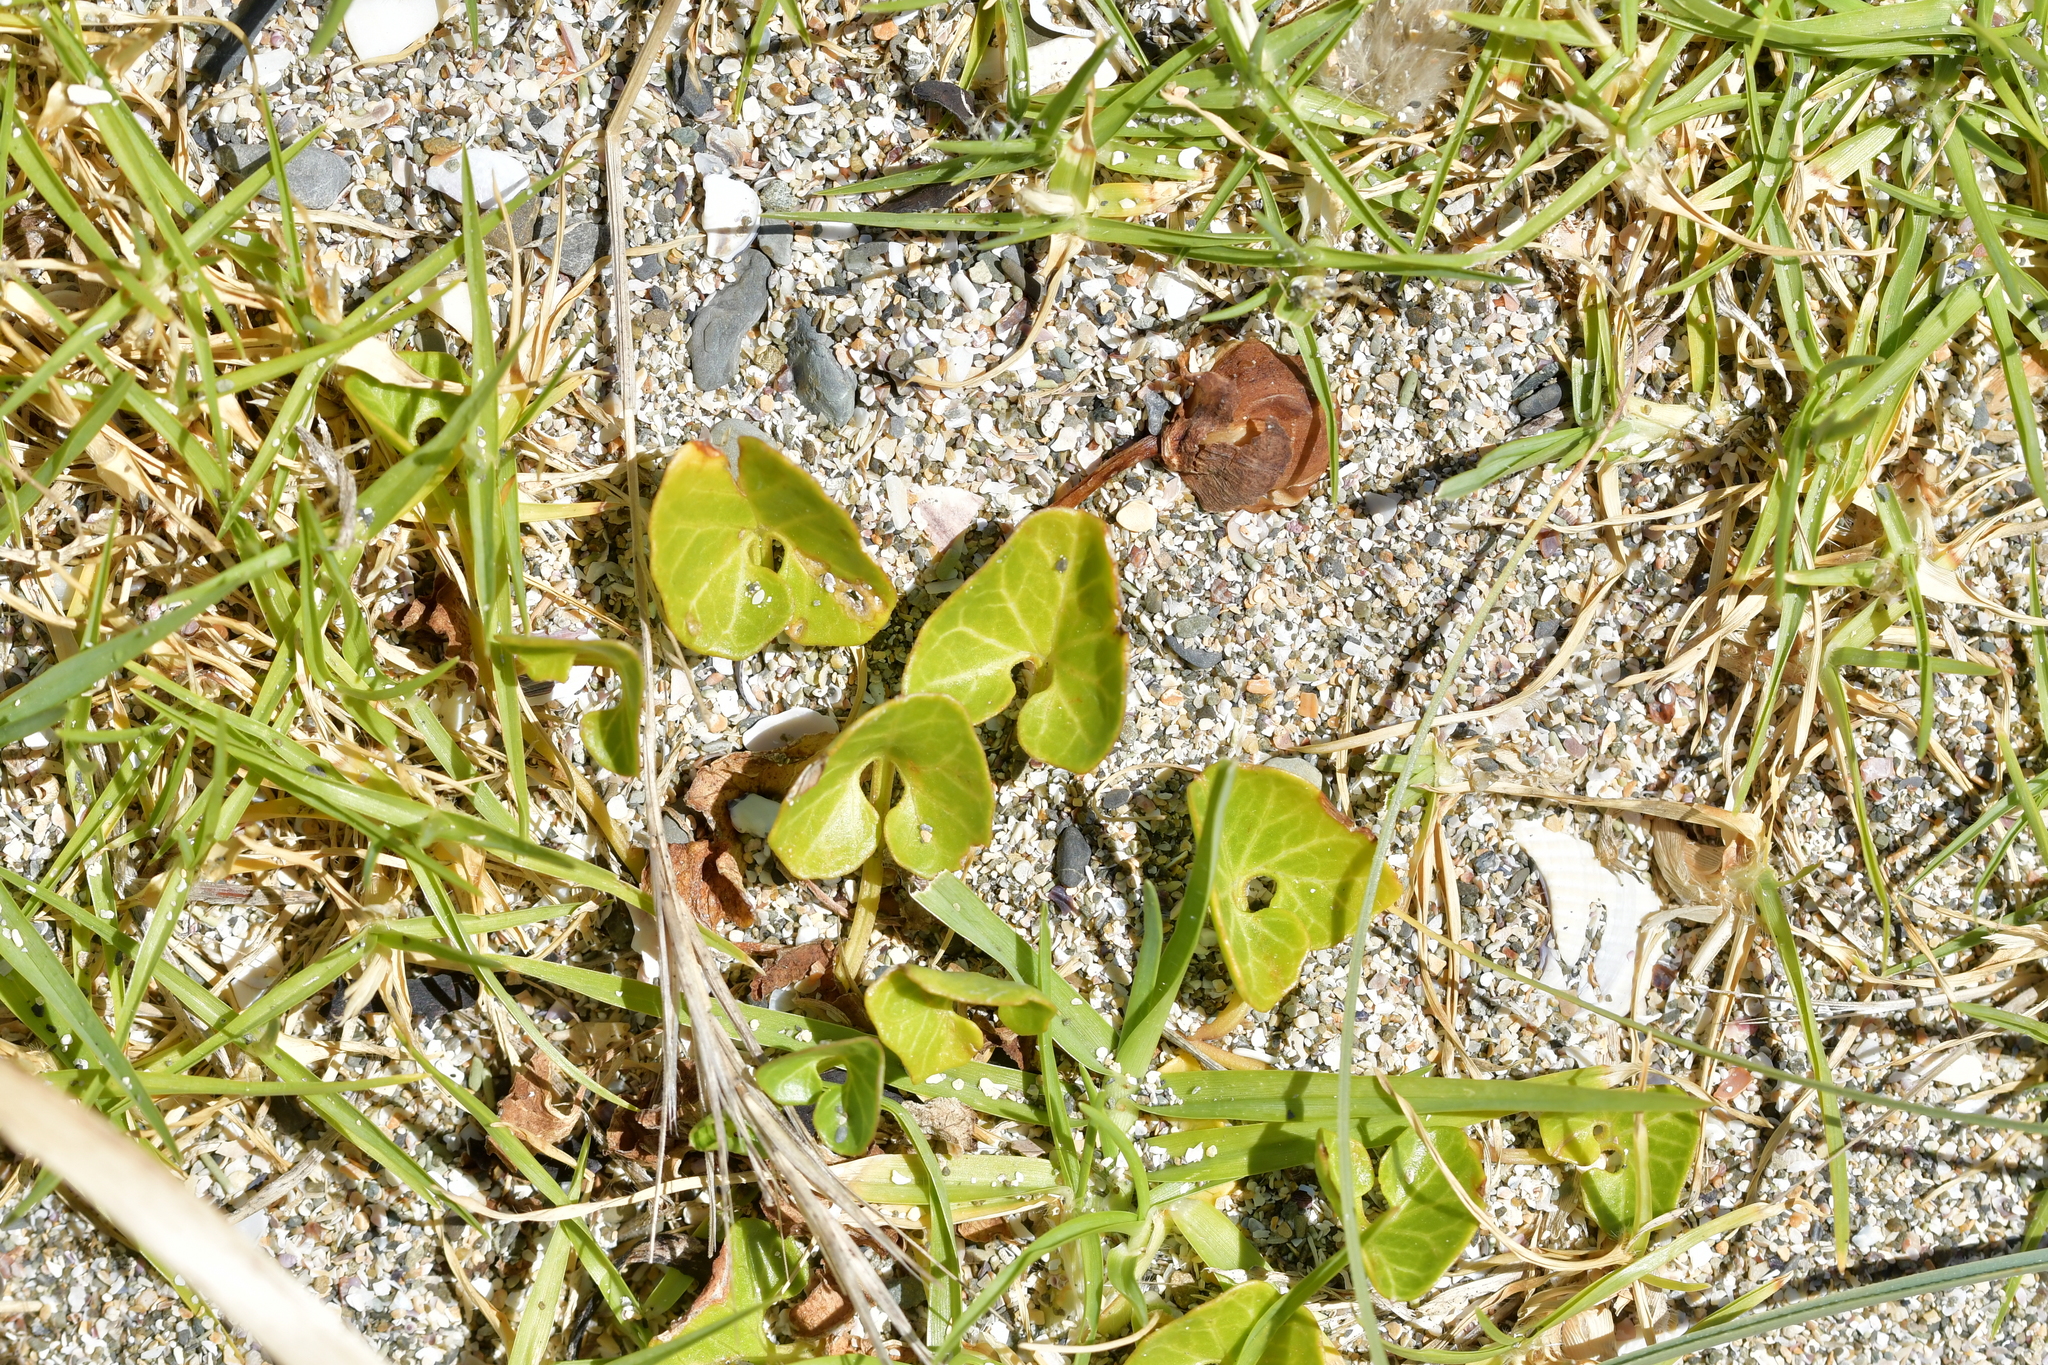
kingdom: Plantae
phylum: Tracheophyta
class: Magnoliopsida
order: Solanales
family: Convolvulaceae
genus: Calystegia
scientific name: Calystegia soldanella
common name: Sea bindweed
